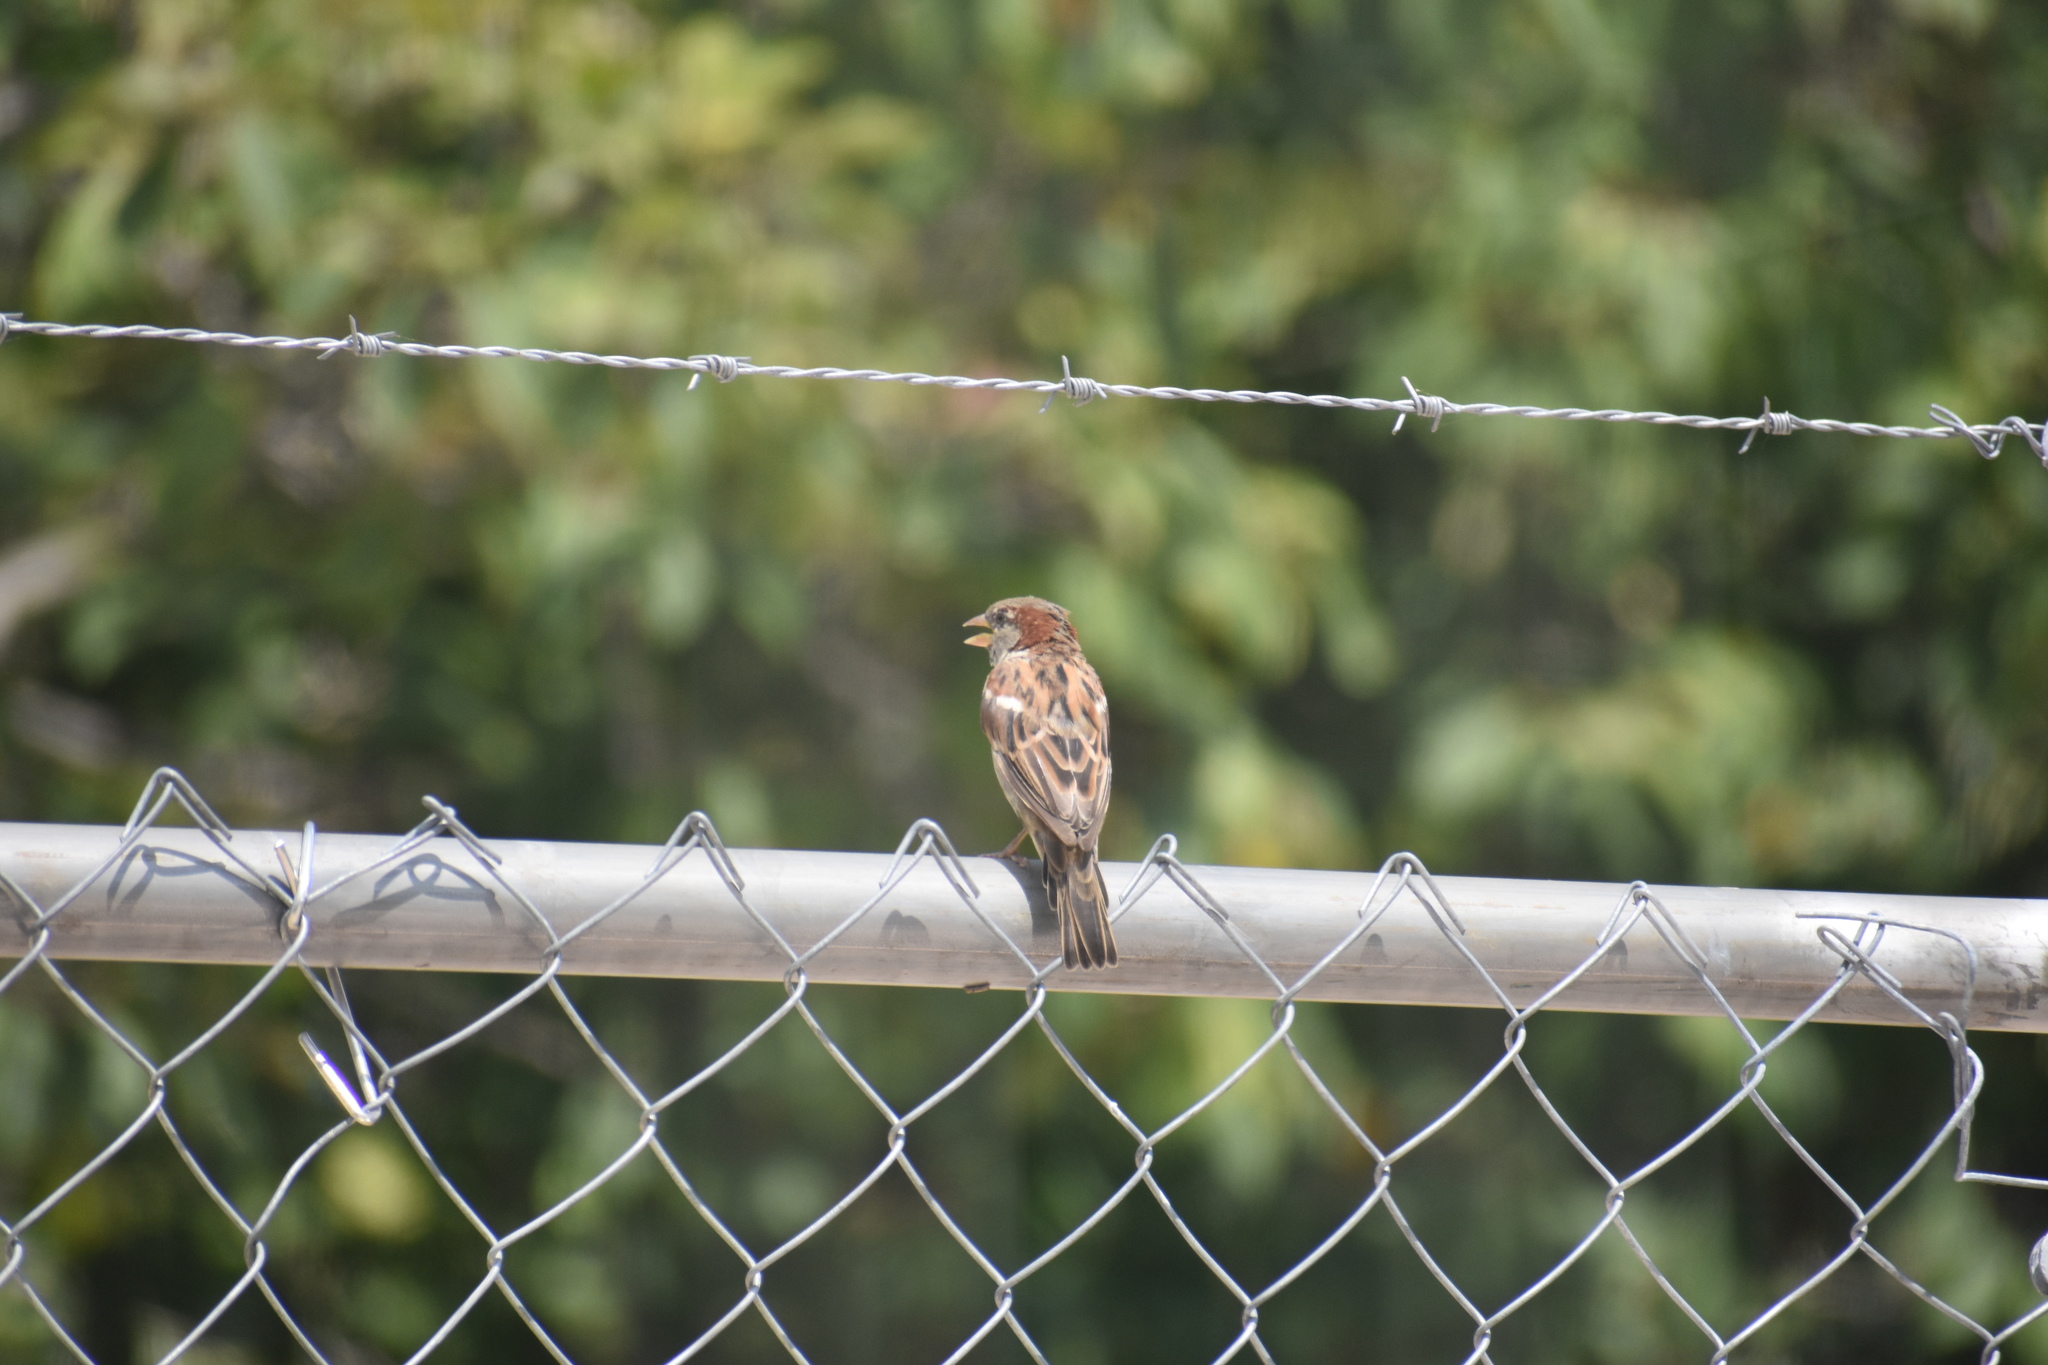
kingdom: Animalia
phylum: Chordata
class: Aves
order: Passeriformes
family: Passeridae
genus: Passer
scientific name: Passer domesticus
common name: House sparrow
